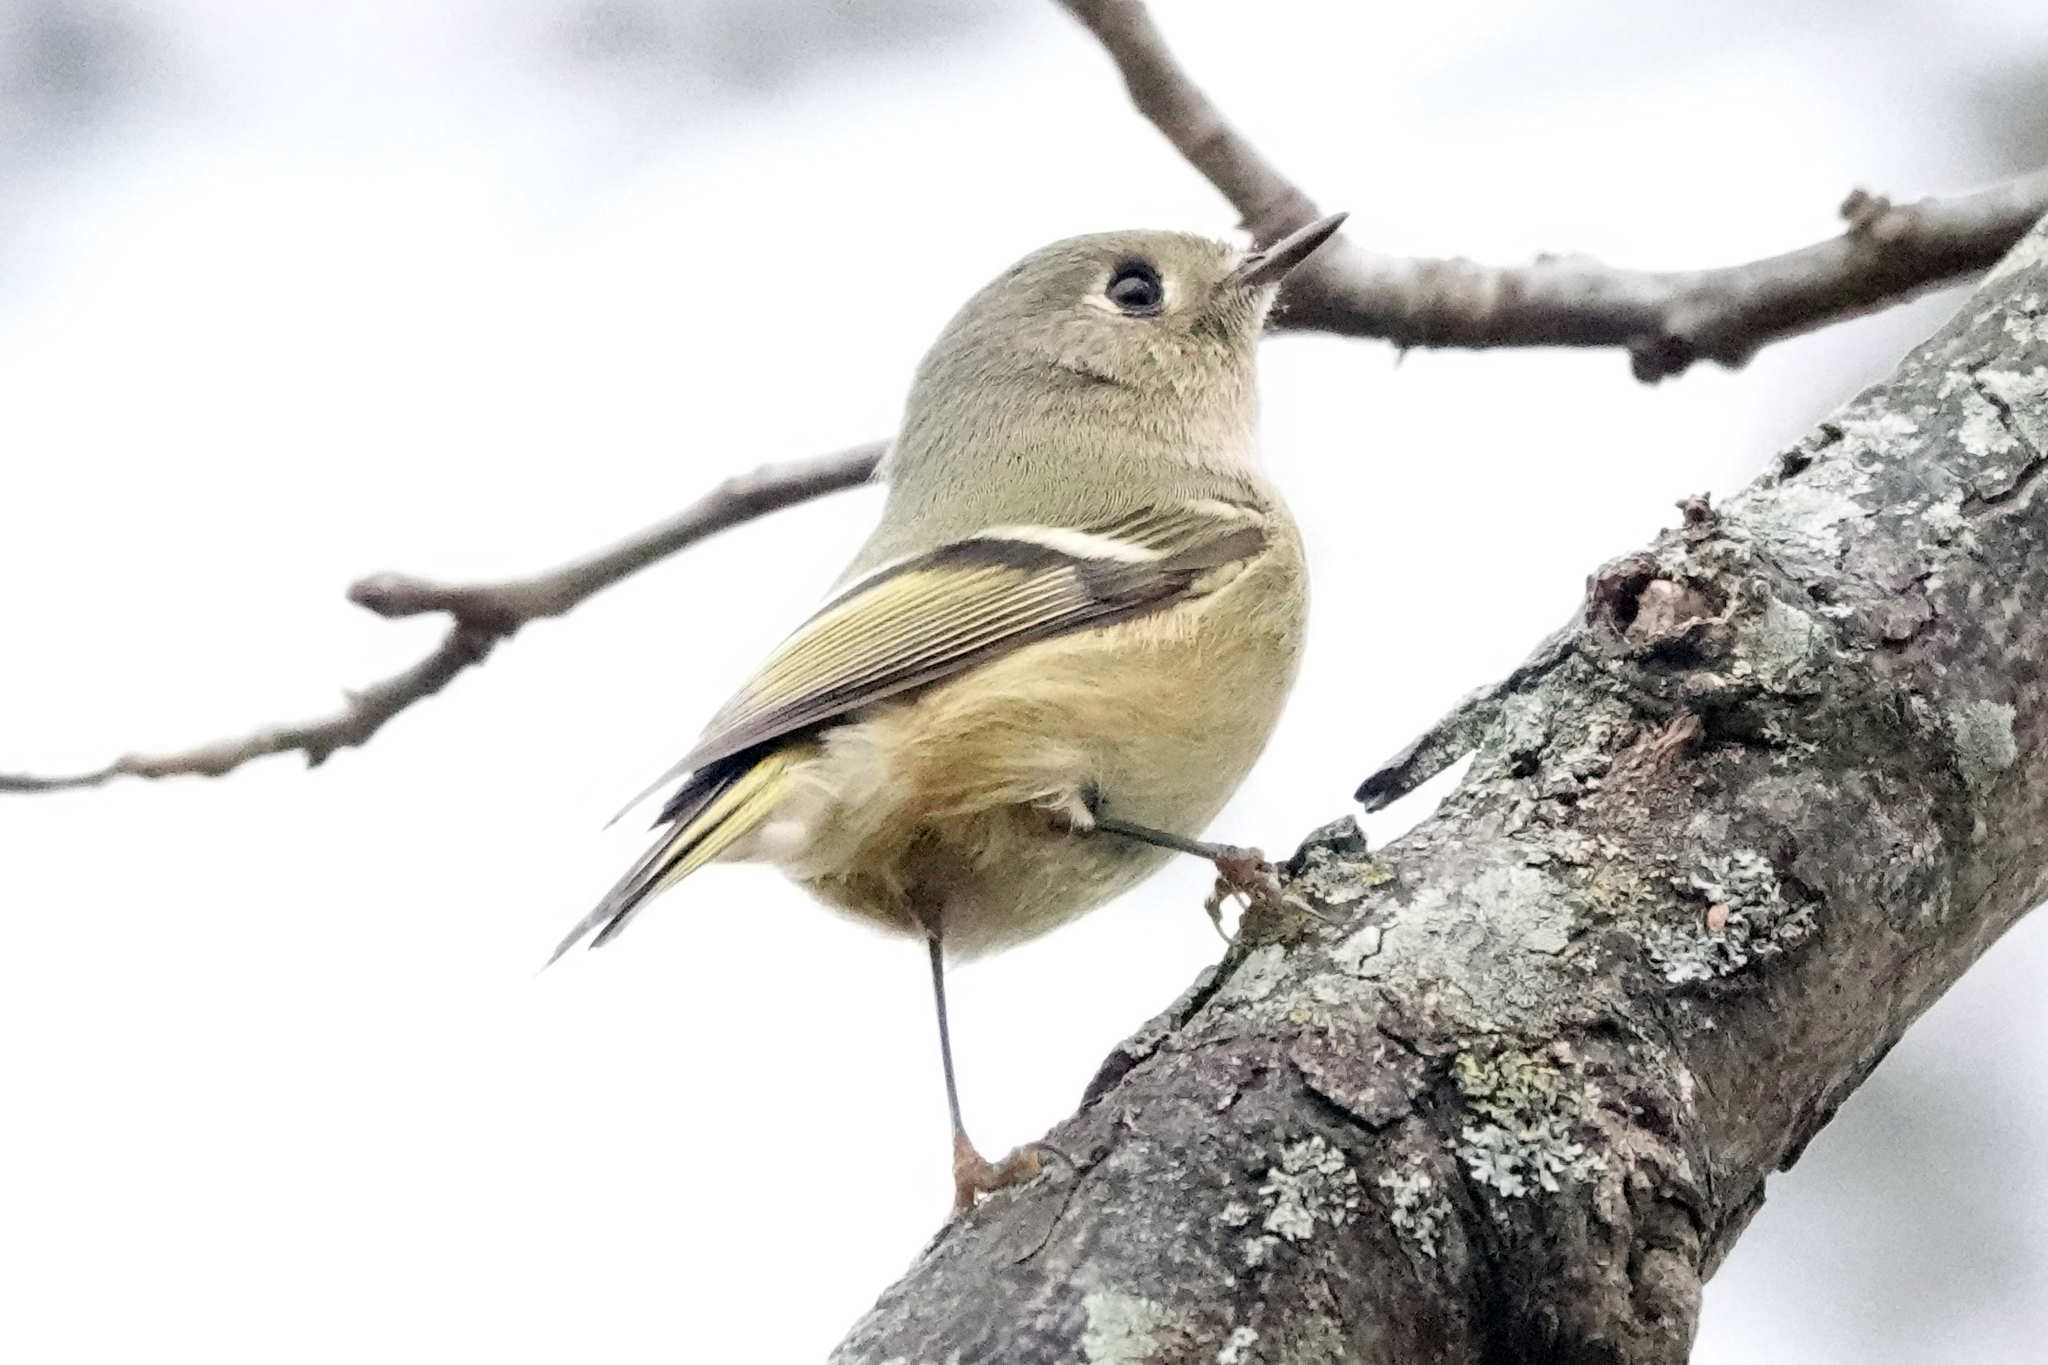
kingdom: Animalia
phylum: Chordata
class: Aves
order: Passeriformes
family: Regulidae
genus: Regulus
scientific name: Regulus calendula
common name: Ruby-crowned kinglet
